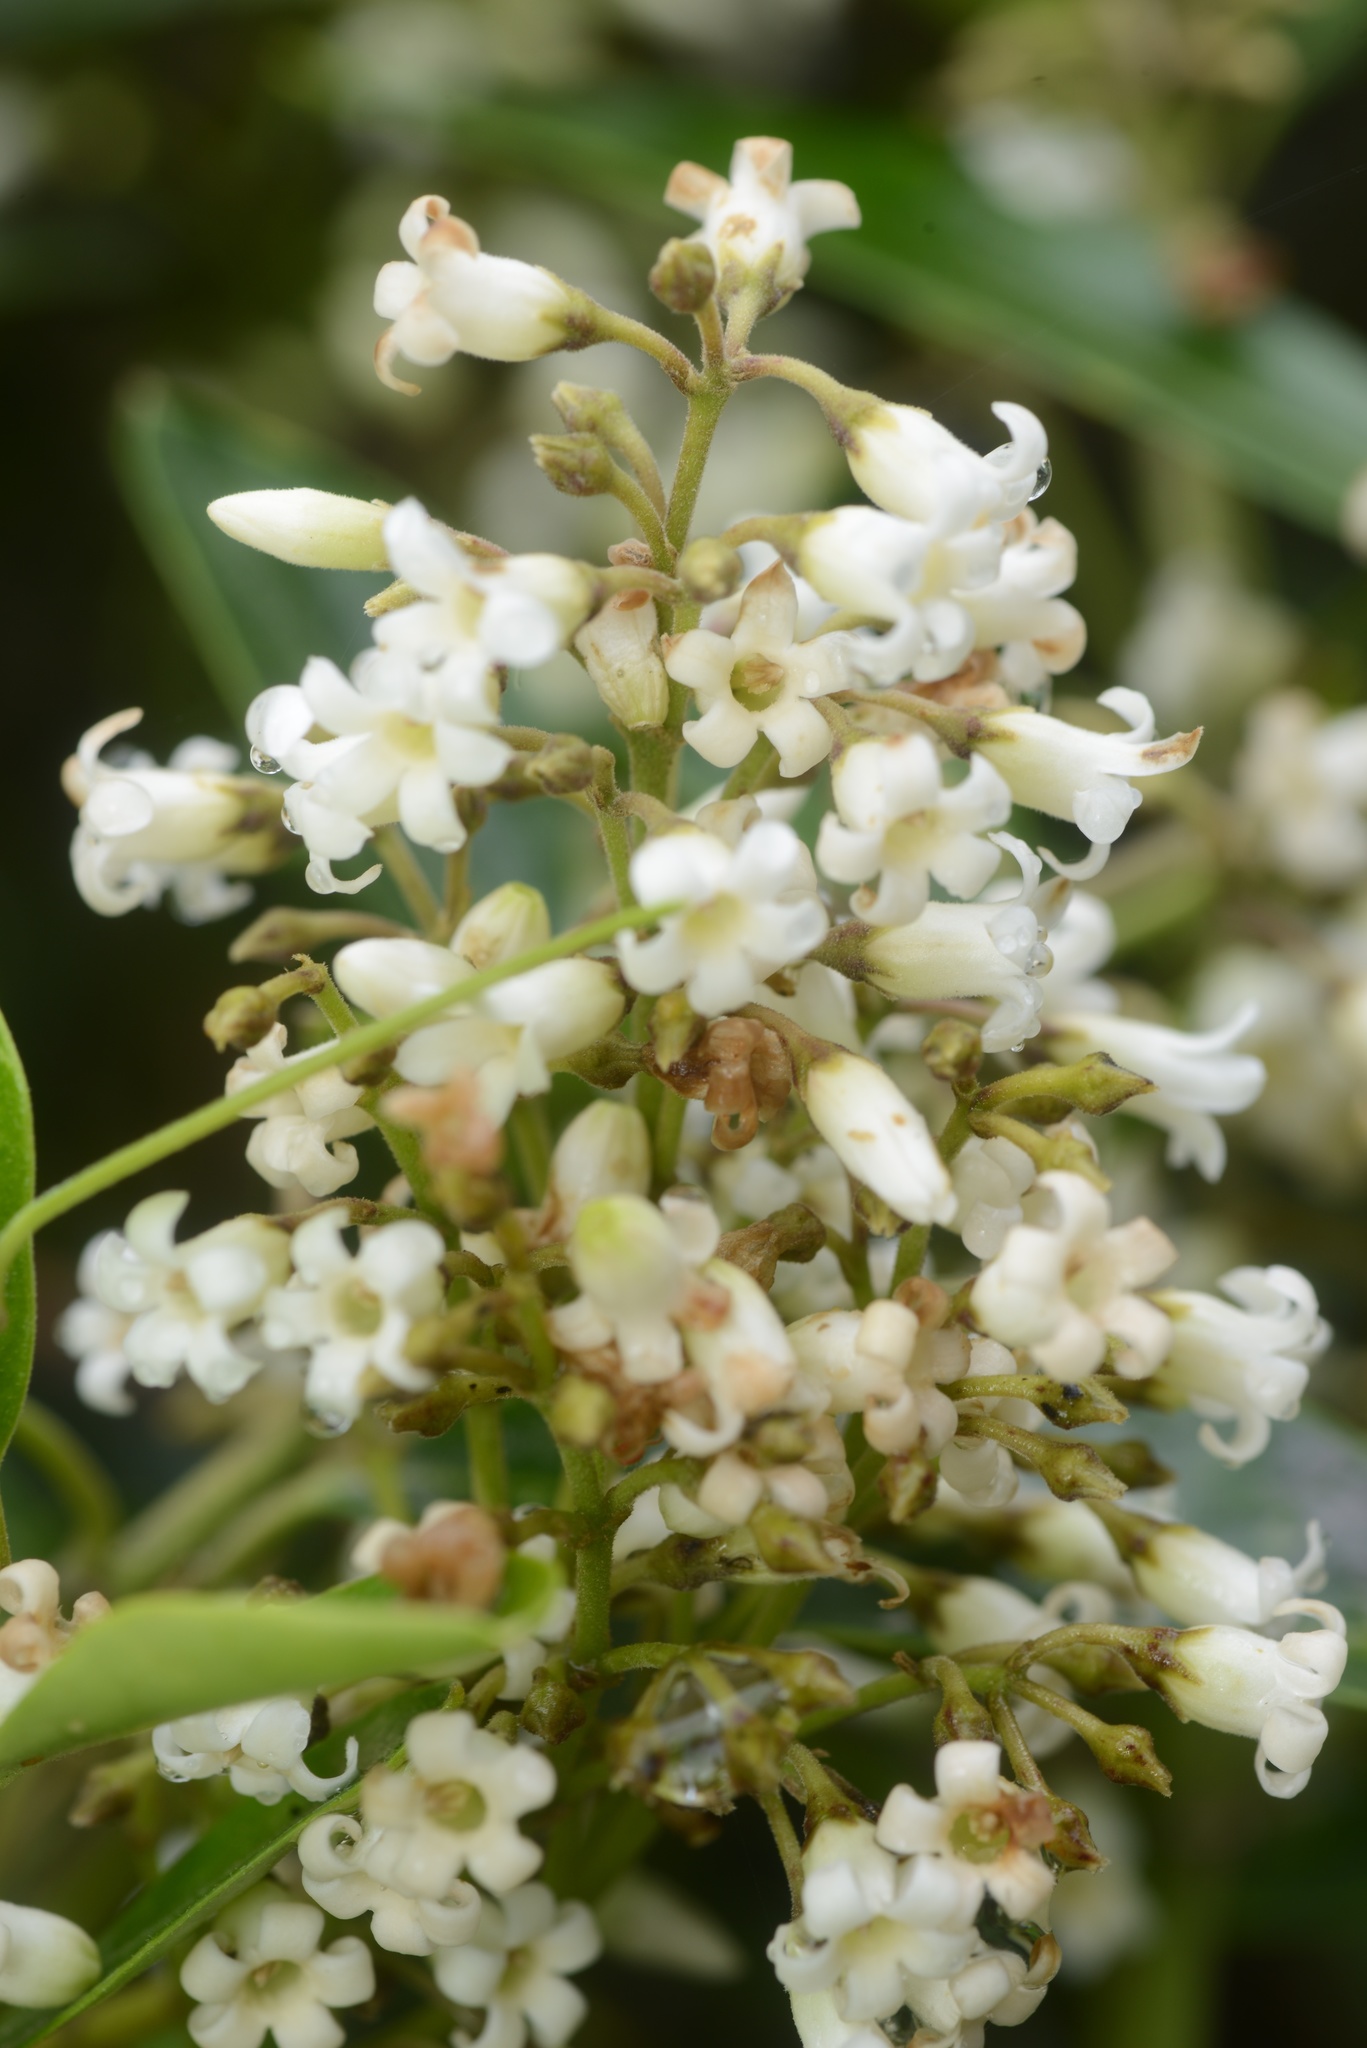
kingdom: Plantae
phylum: Tracheophyta
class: Magnoliopsida
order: Gentianales
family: Apocynaceae
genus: Parsonsia
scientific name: Parsonsia heterophylla
